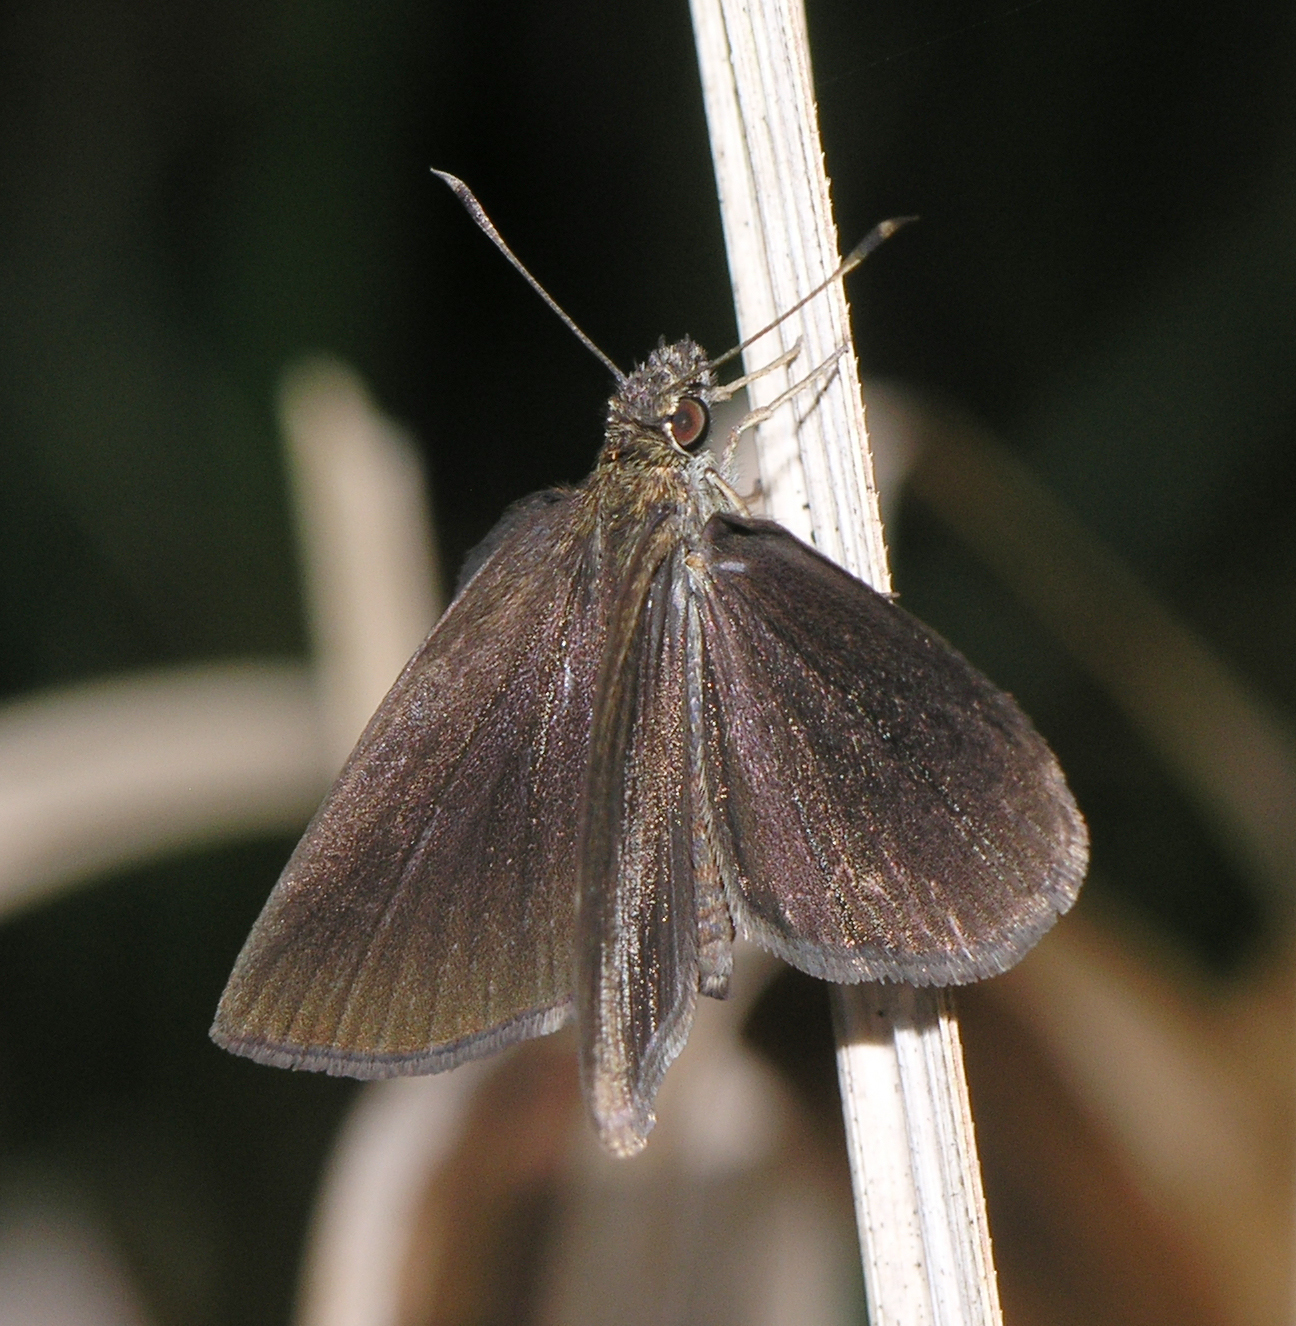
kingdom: Animalia
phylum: Arthropoda
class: Insecta
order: Lepidoptera
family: Hesperiidae
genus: Astictopterus
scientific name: Astictopterus jama
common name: Forest hopper
